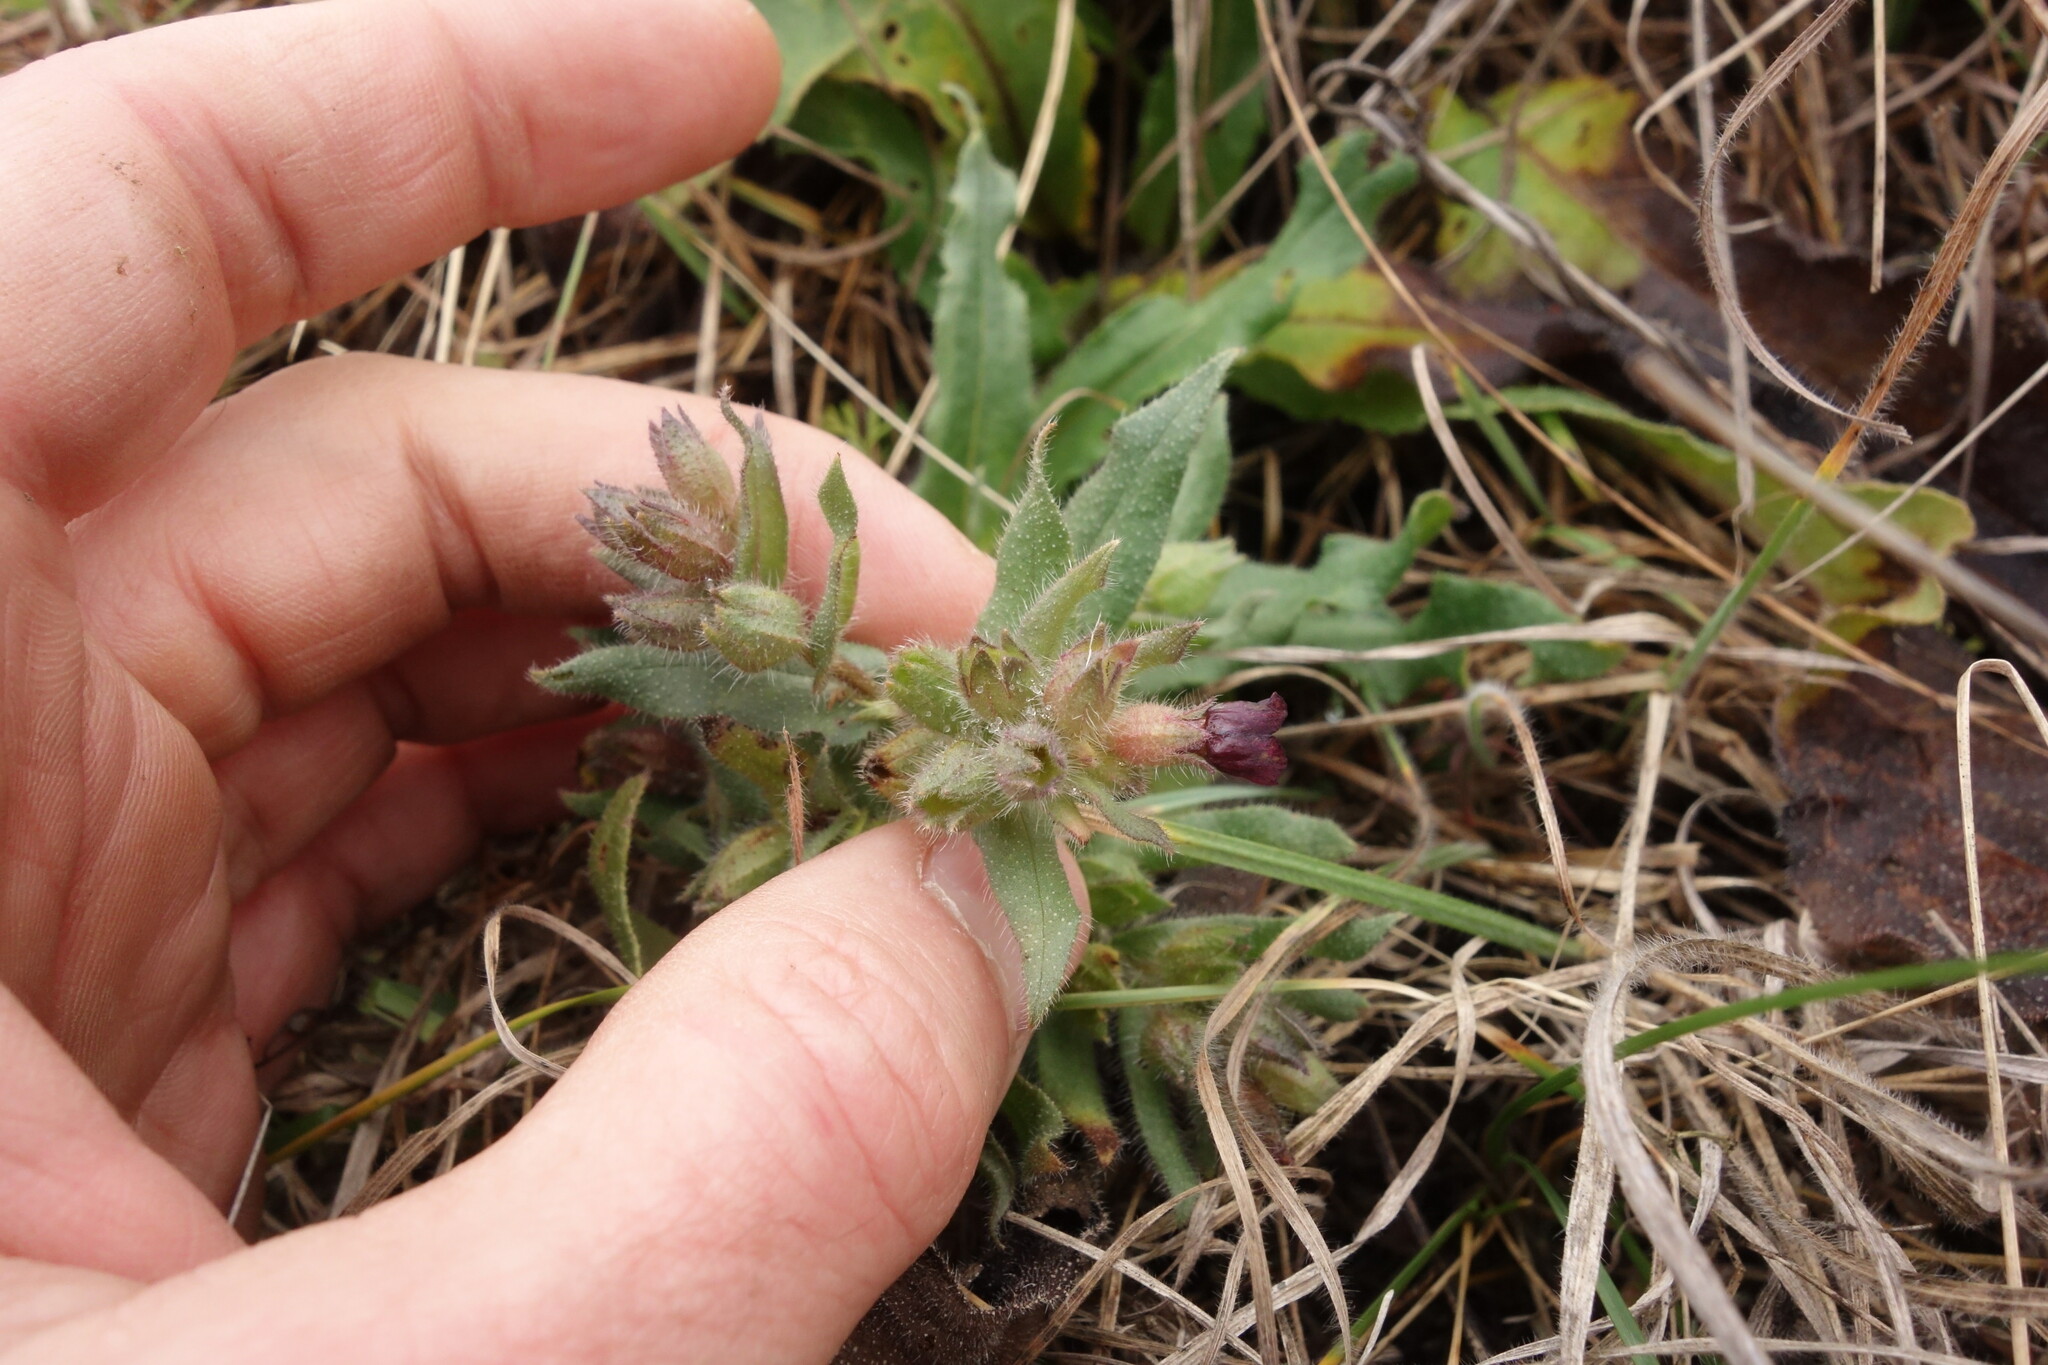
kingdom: Plantae
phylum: Tracheophyta
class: Magnoliopsida
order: Boraginales
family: Boraginaceae
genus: Nonea
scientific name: Nonea pulla
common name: Brown nonea
